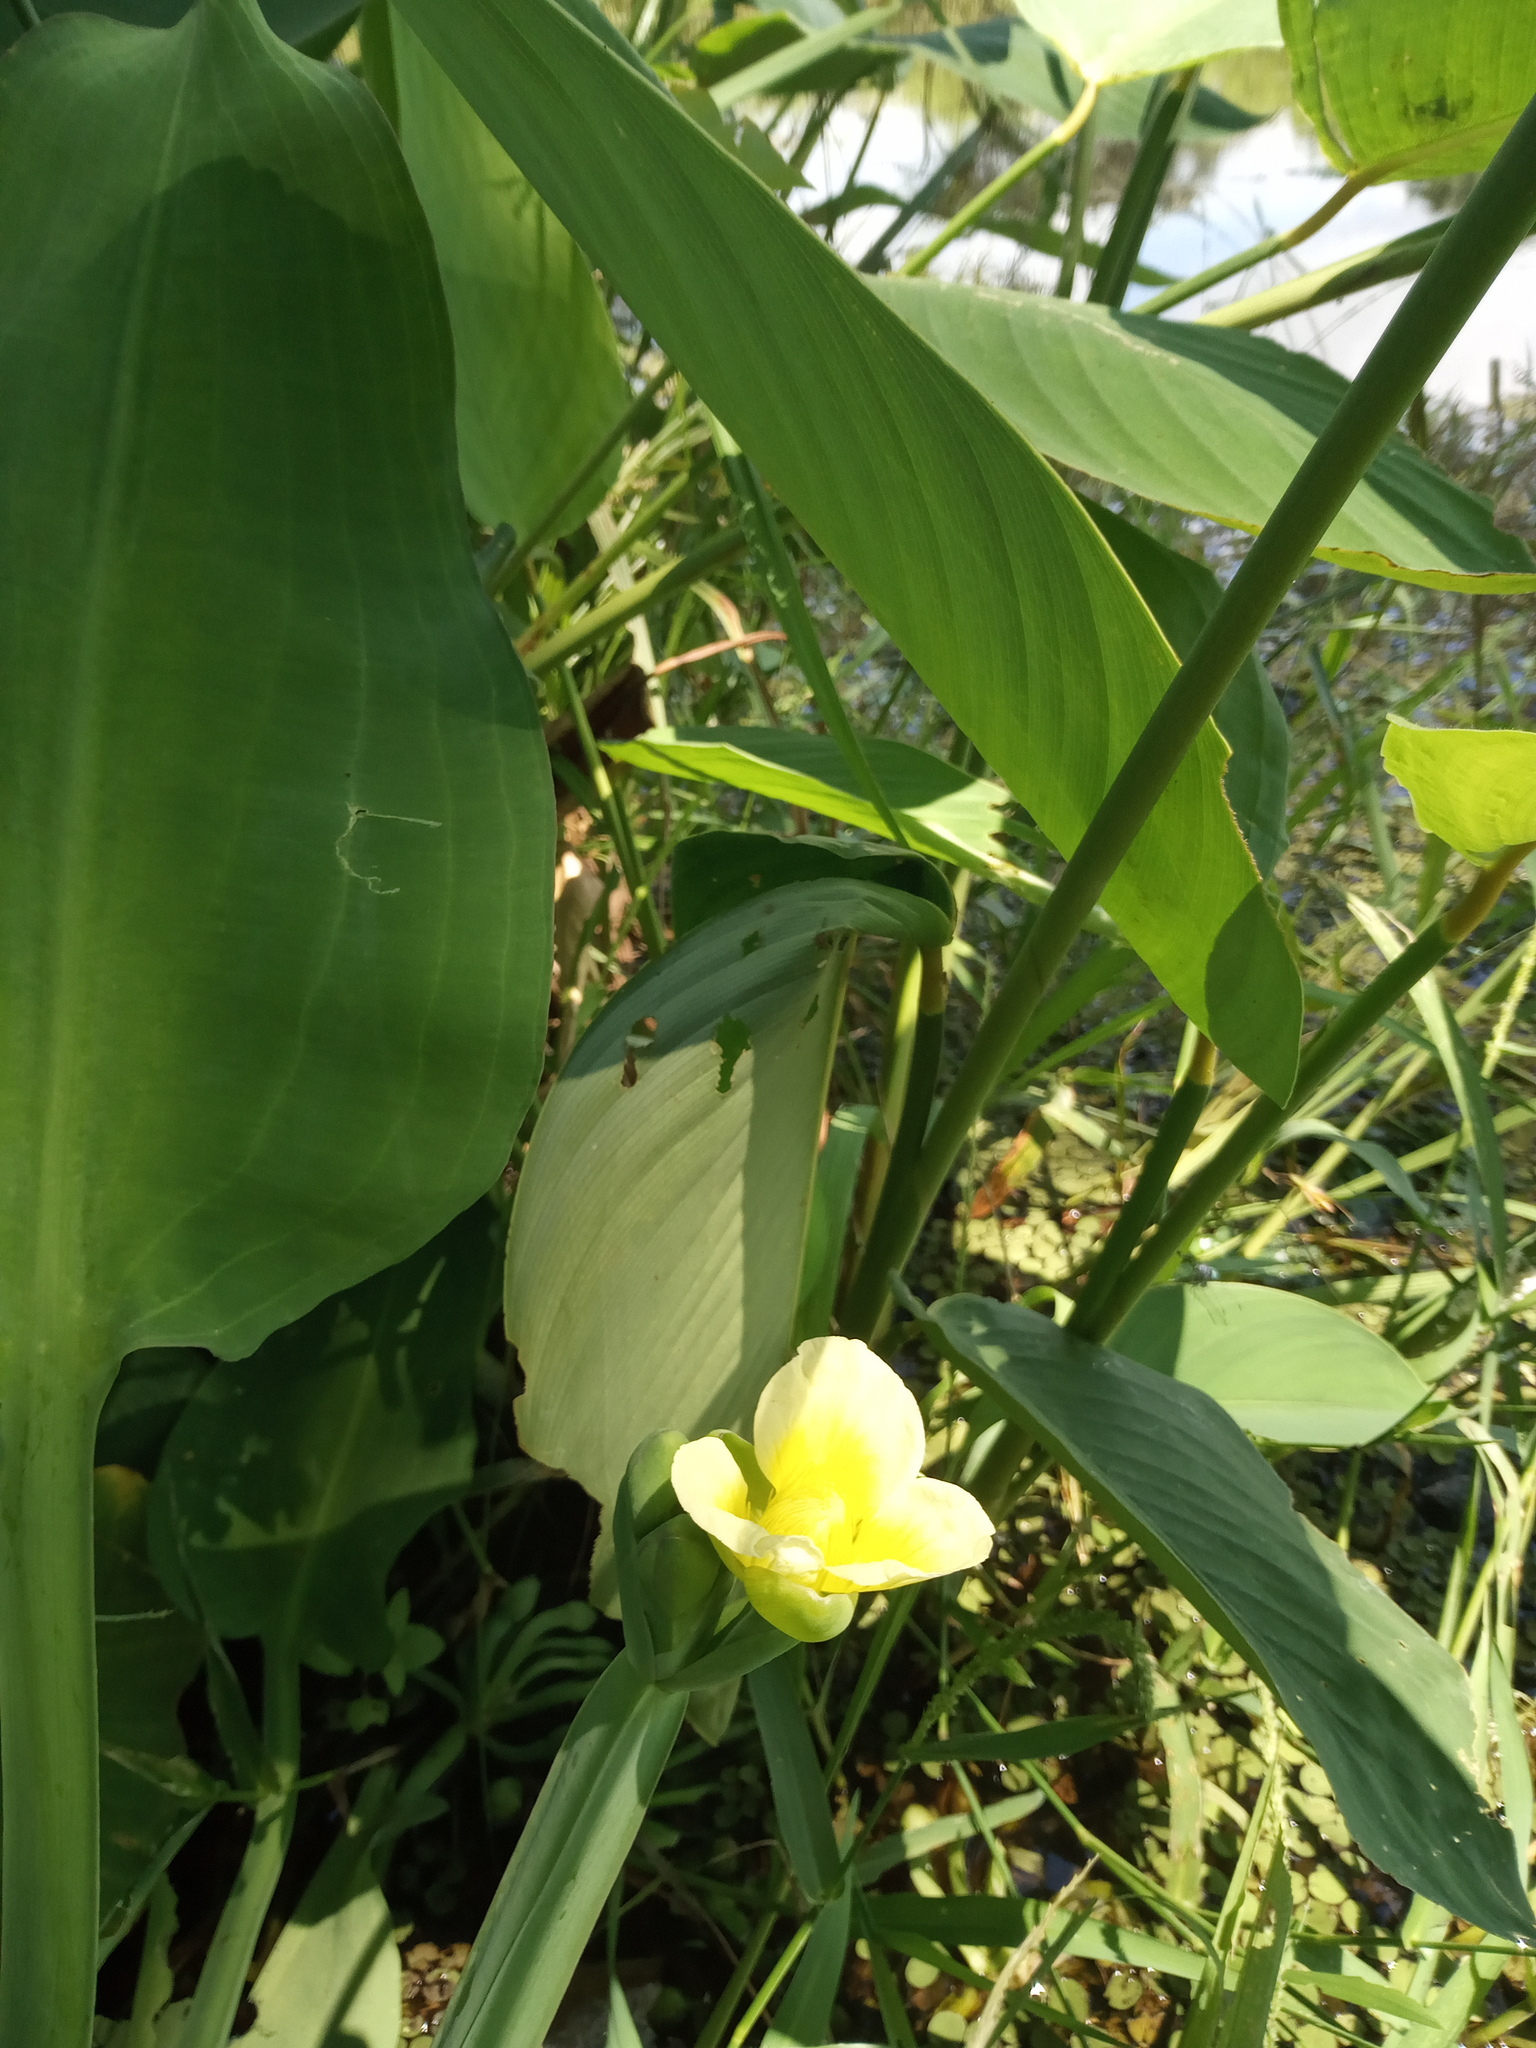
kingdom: Plantae
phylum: Tracheophyta
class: Liliopsida
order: Alismatales
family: Alismataceae
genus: Limnocharis
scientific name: Limnocharis flava
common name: Sawah-flower-rush
